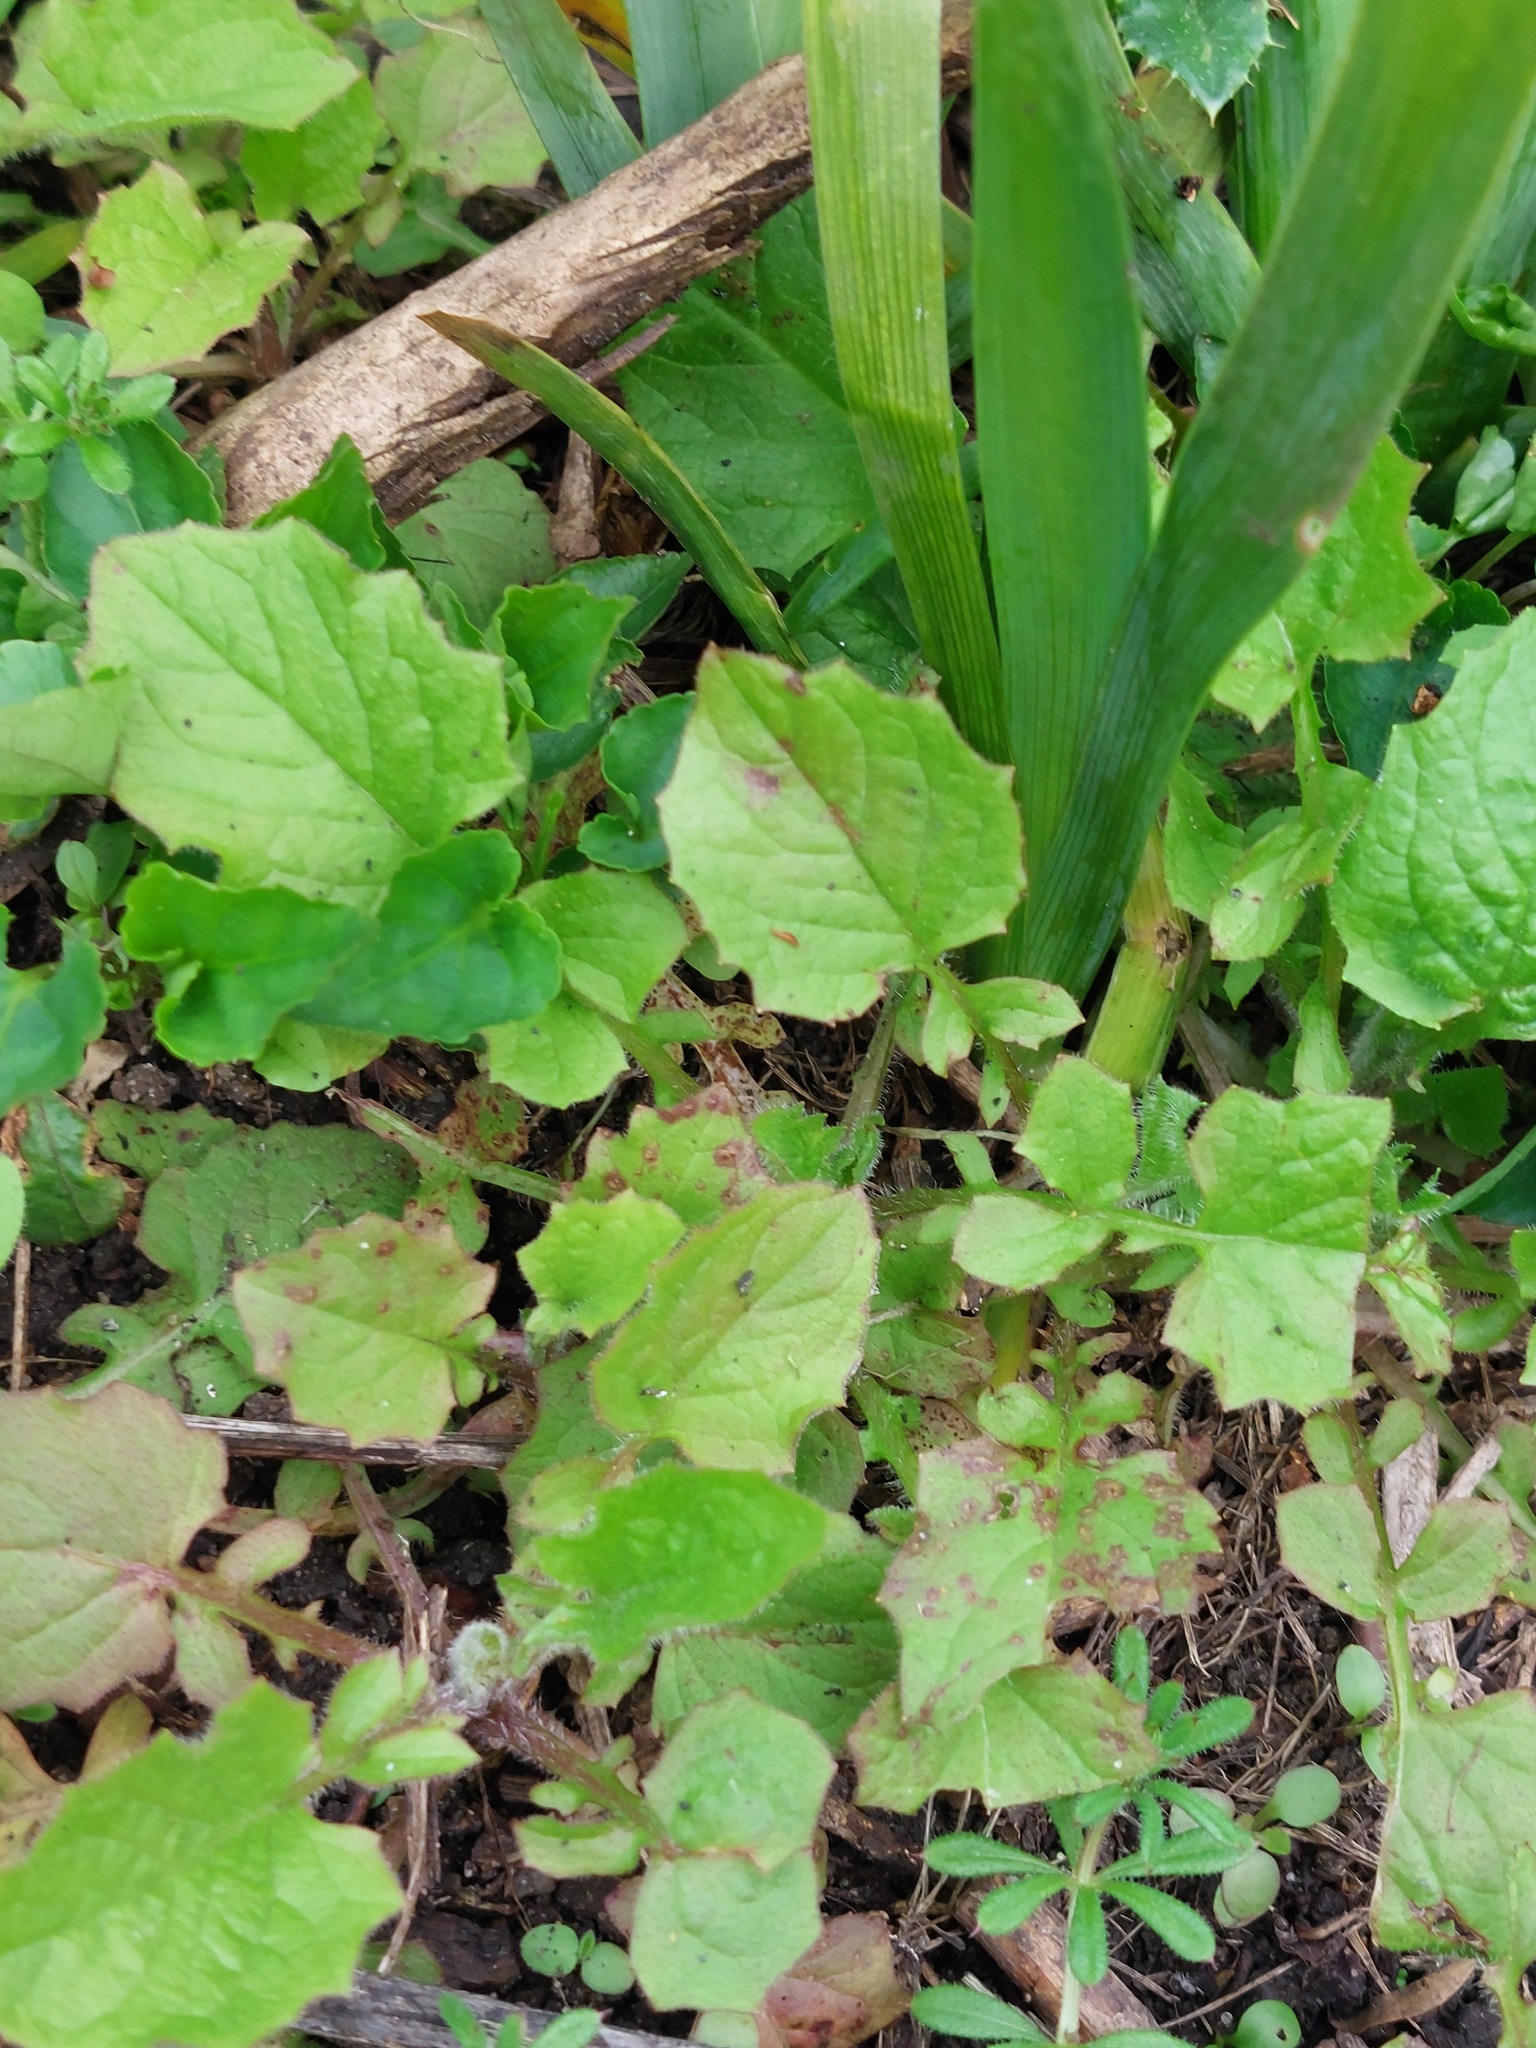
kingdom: Plantae
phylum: Tracheophyta
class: Magnoliopsida
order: Asterales
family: Asteraceae
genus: Lapsana
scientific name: Lapsana communis
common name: Nipplewort
